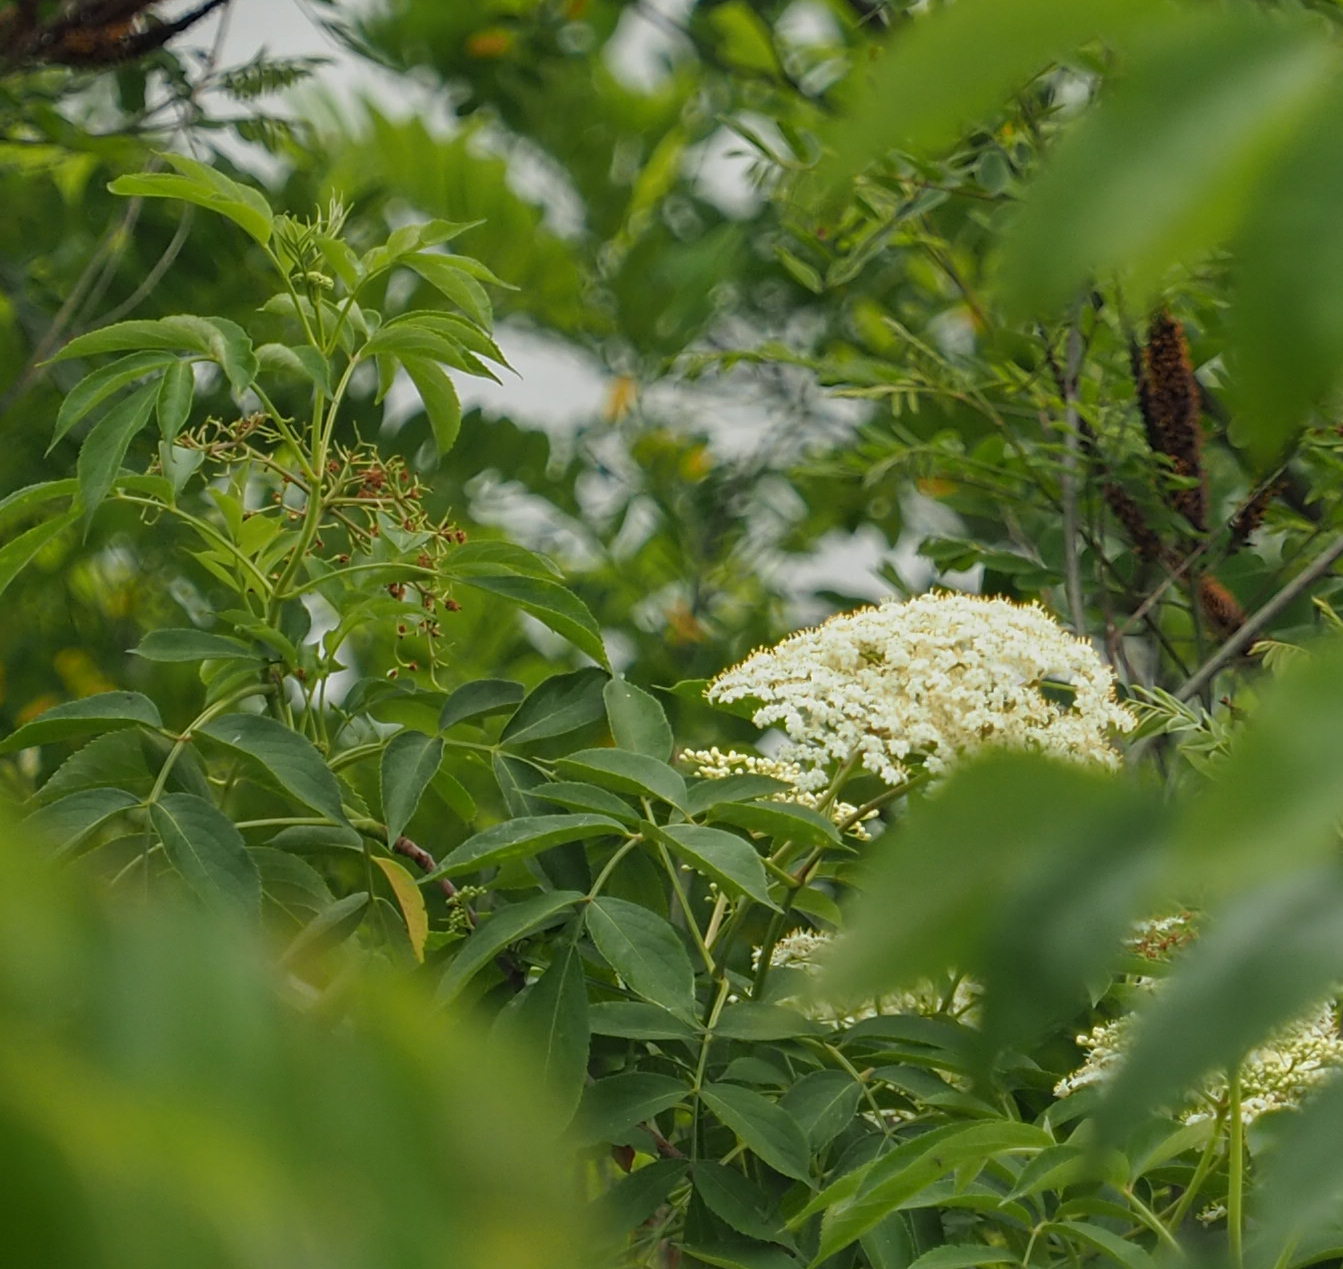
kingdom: Plantae
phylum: Tracheophyta
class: Magnoliopsida
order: Dipsacales
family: Viburnaceae
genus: Sambucus
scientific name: Sambucus canadensis
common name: American elder
